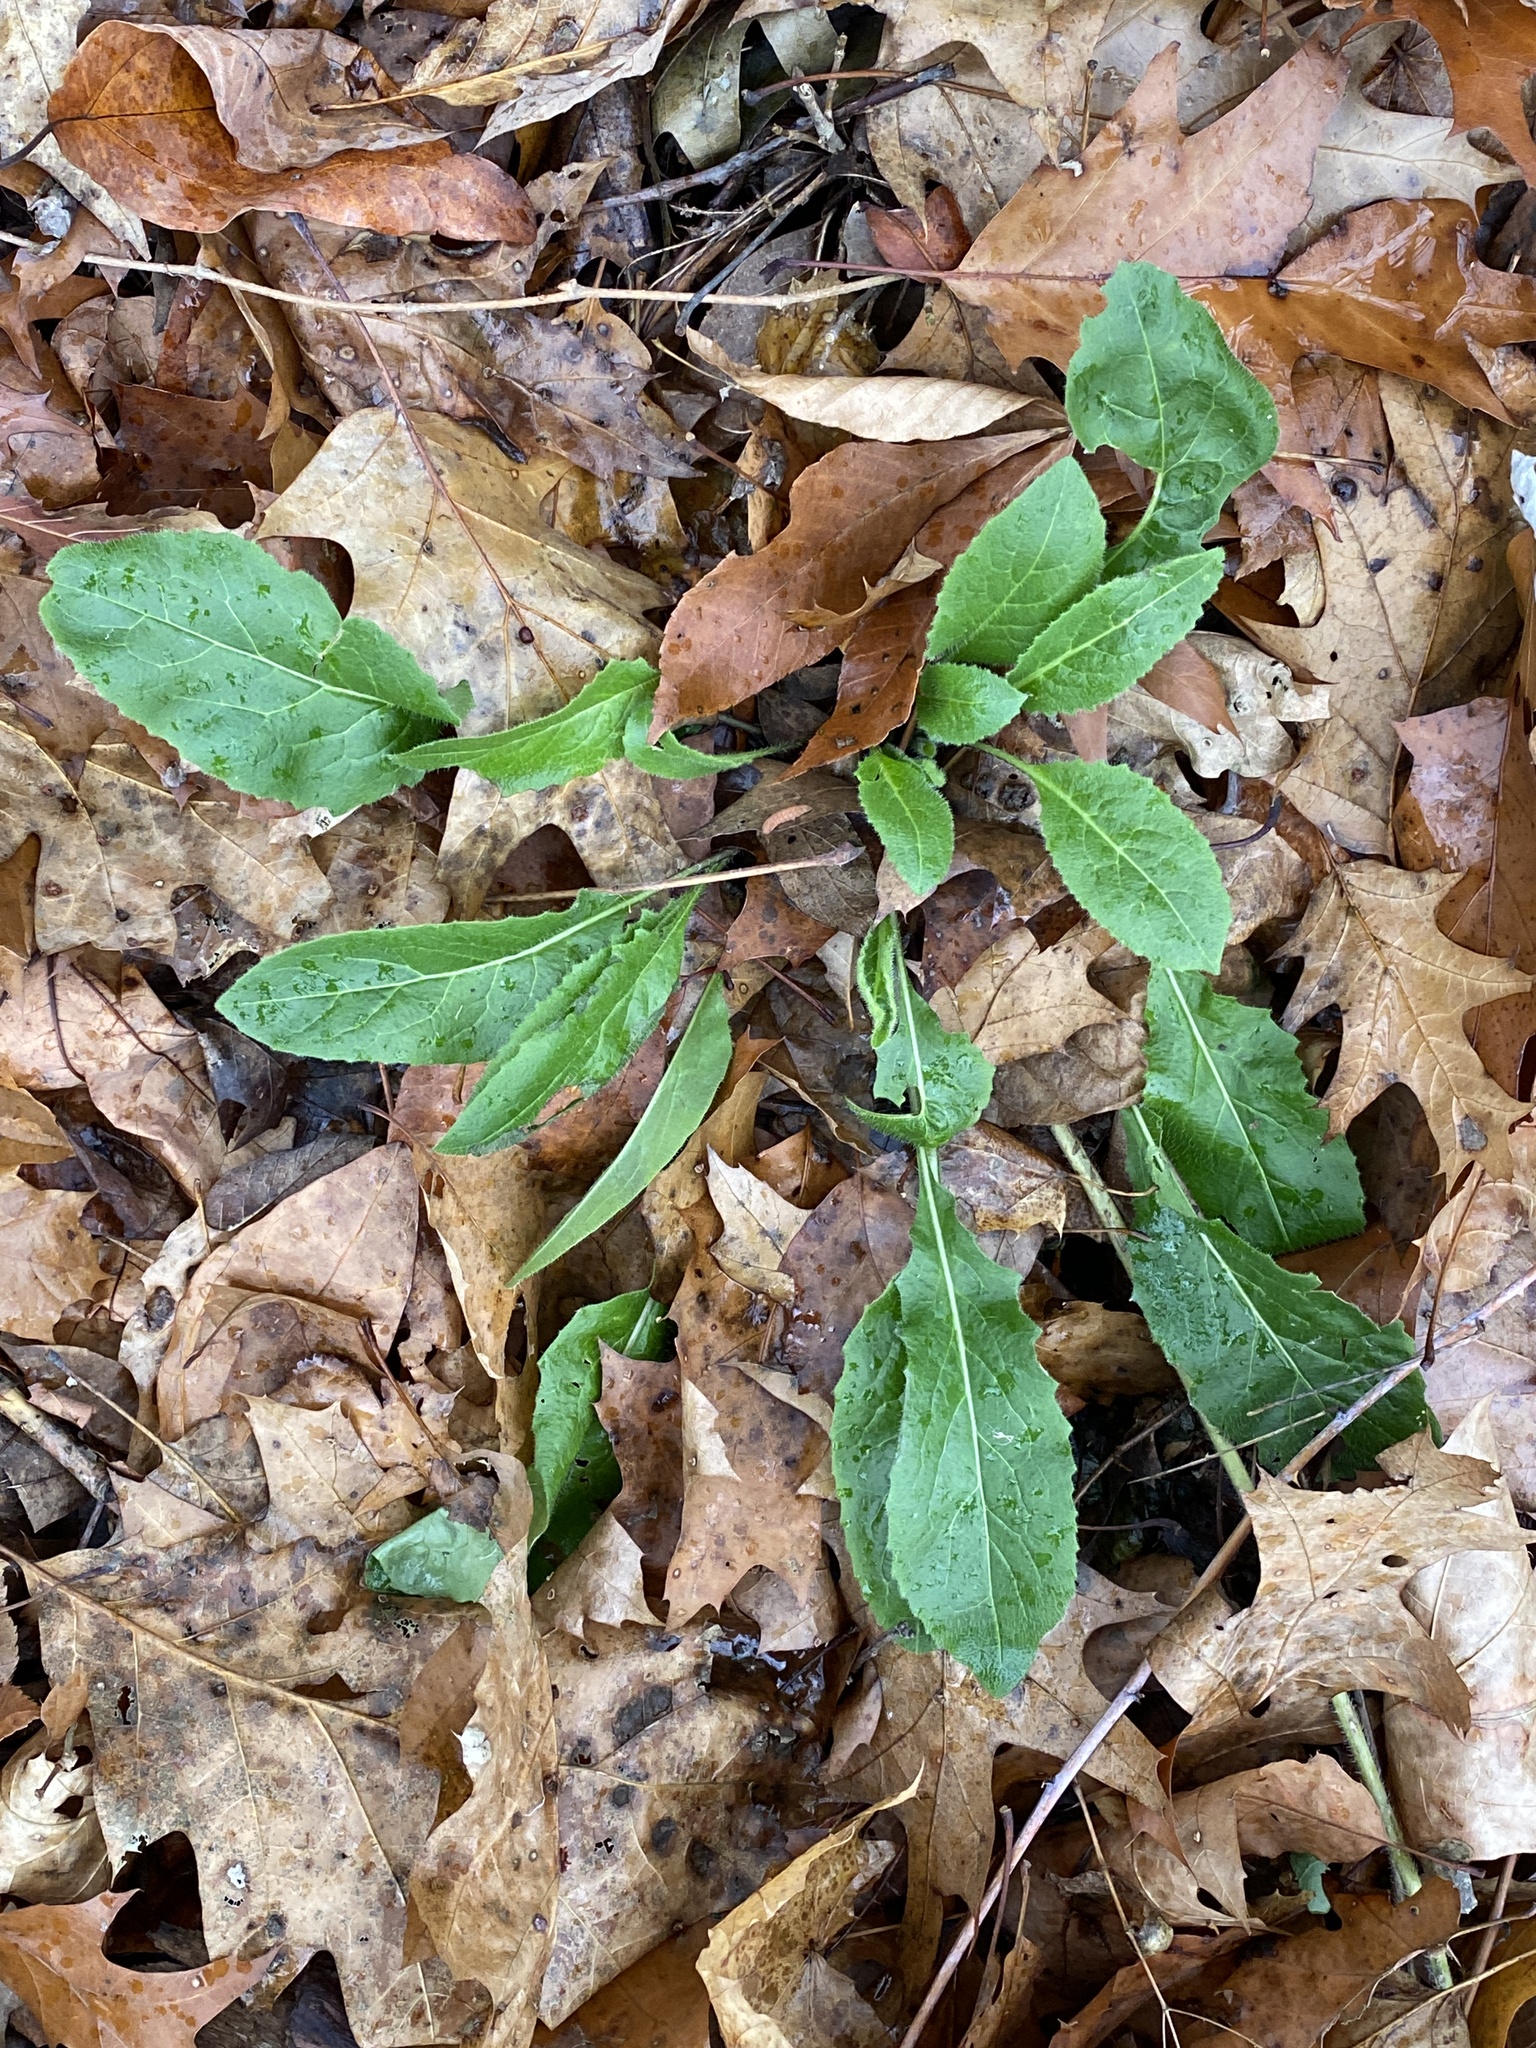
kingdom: Plantae
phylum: Tracheophyta
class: Magnoliopsida
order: Brassicales
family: Brassicaceae
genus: Hesperis
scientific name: Hesperis matronalis
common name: Dame's-violet
